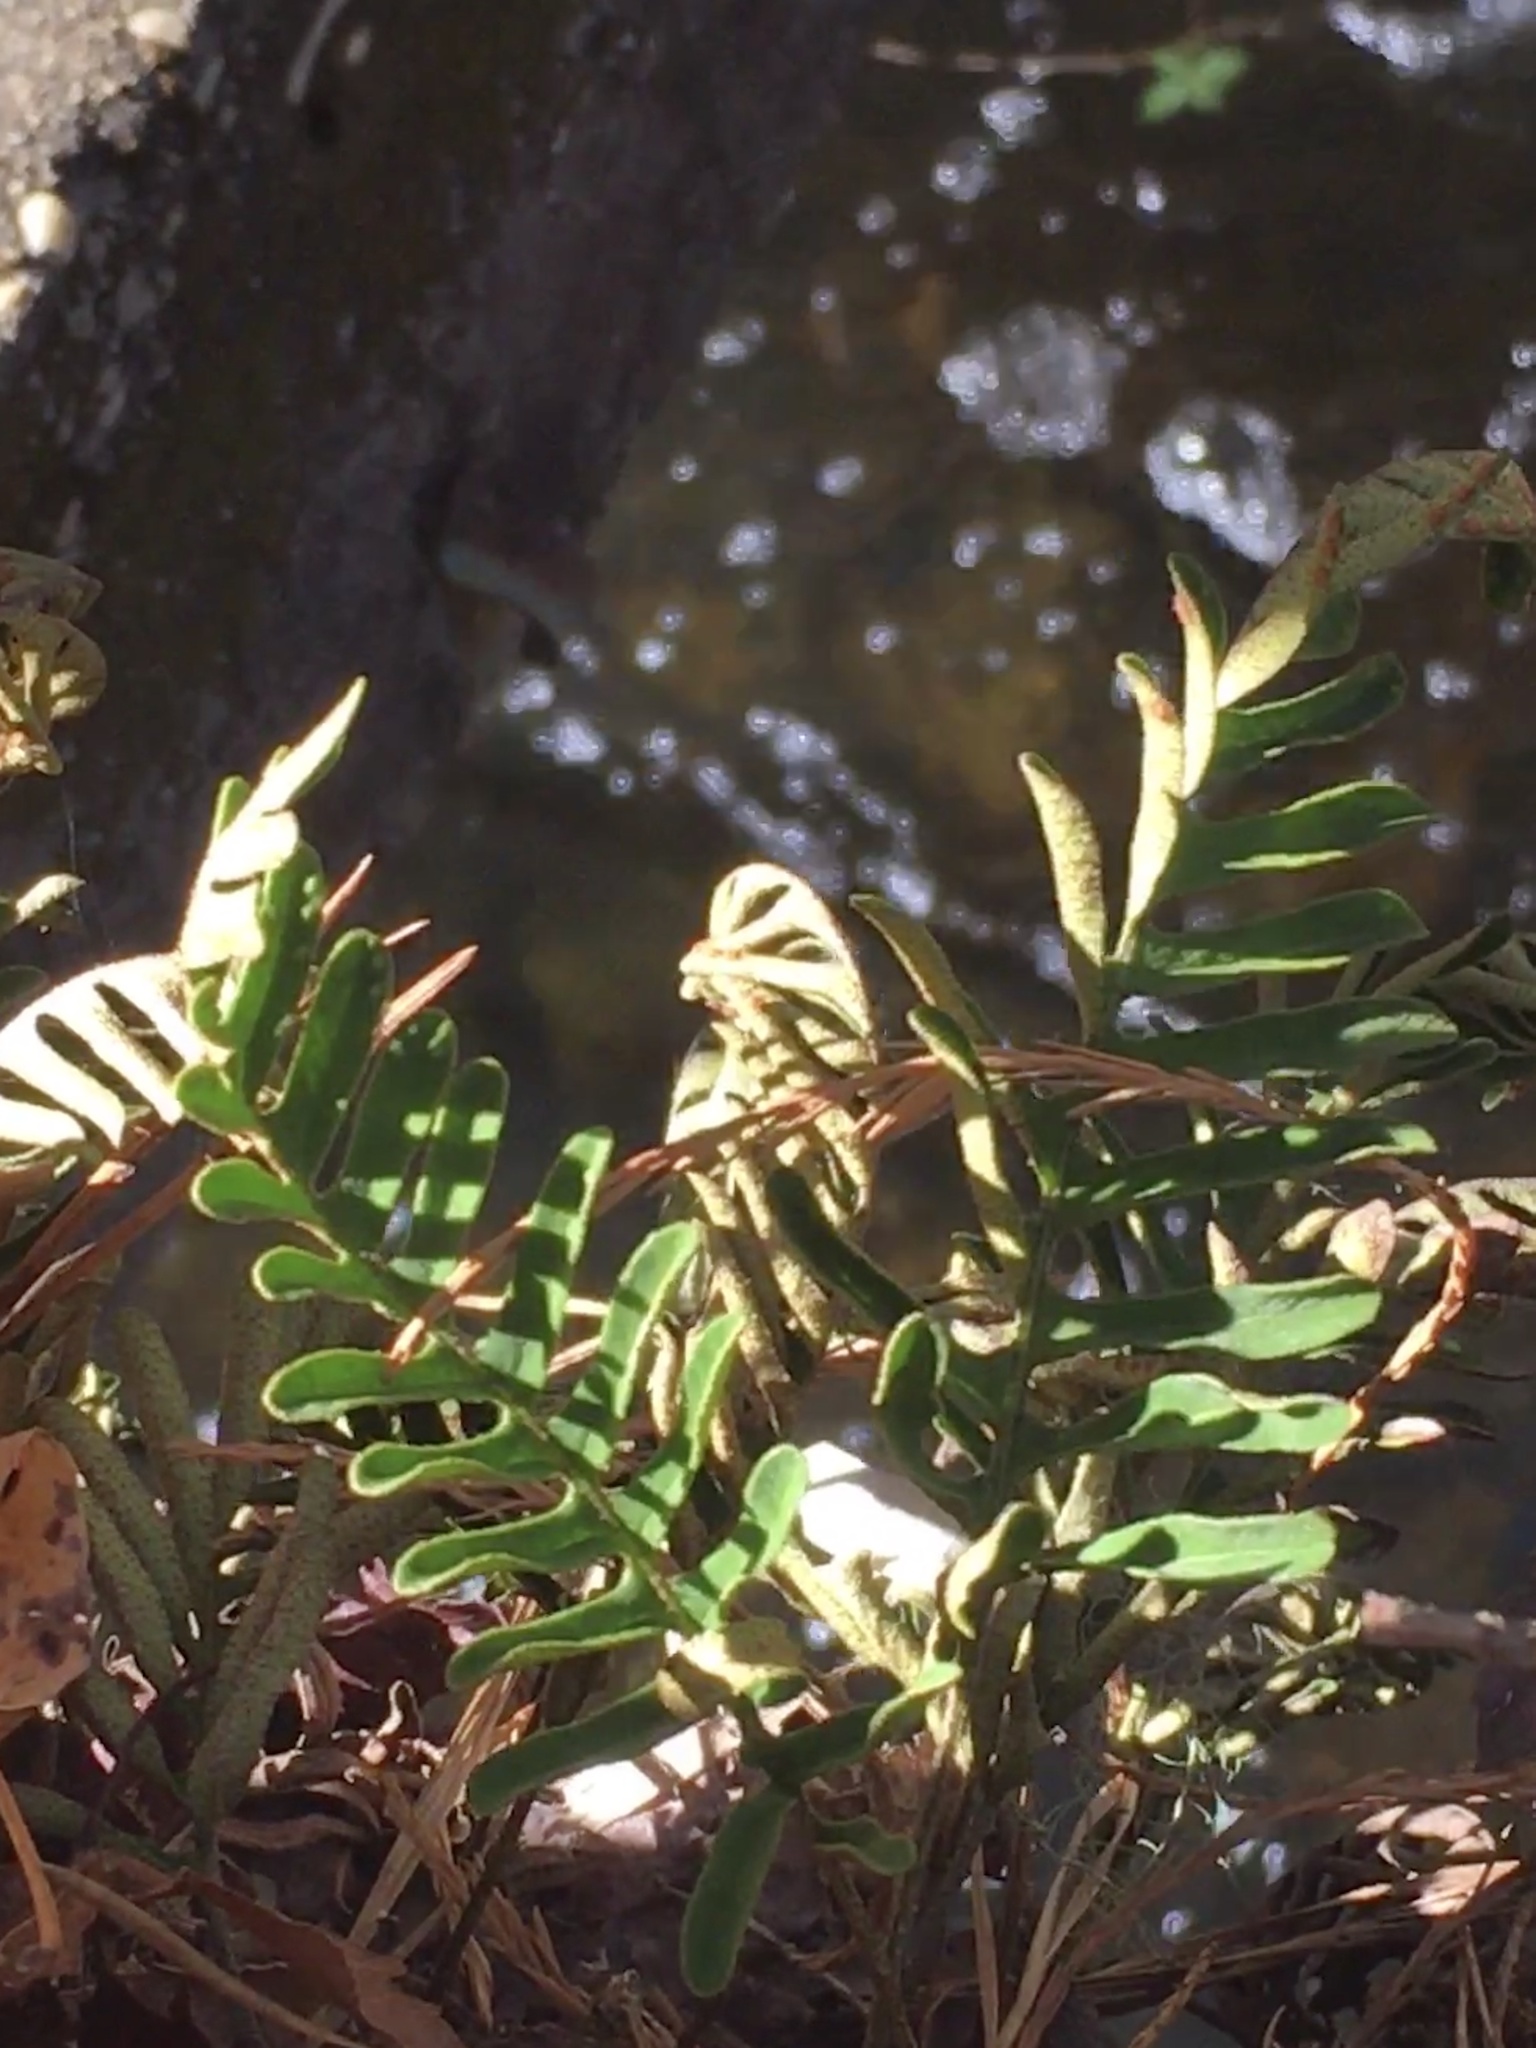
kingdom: Plantae
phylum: Tracheophyta
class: Polypodiopsida
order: Polypodiales
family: Polypodiaceae
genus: Pleopeltis
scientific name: Pleopeltis michauxiana
